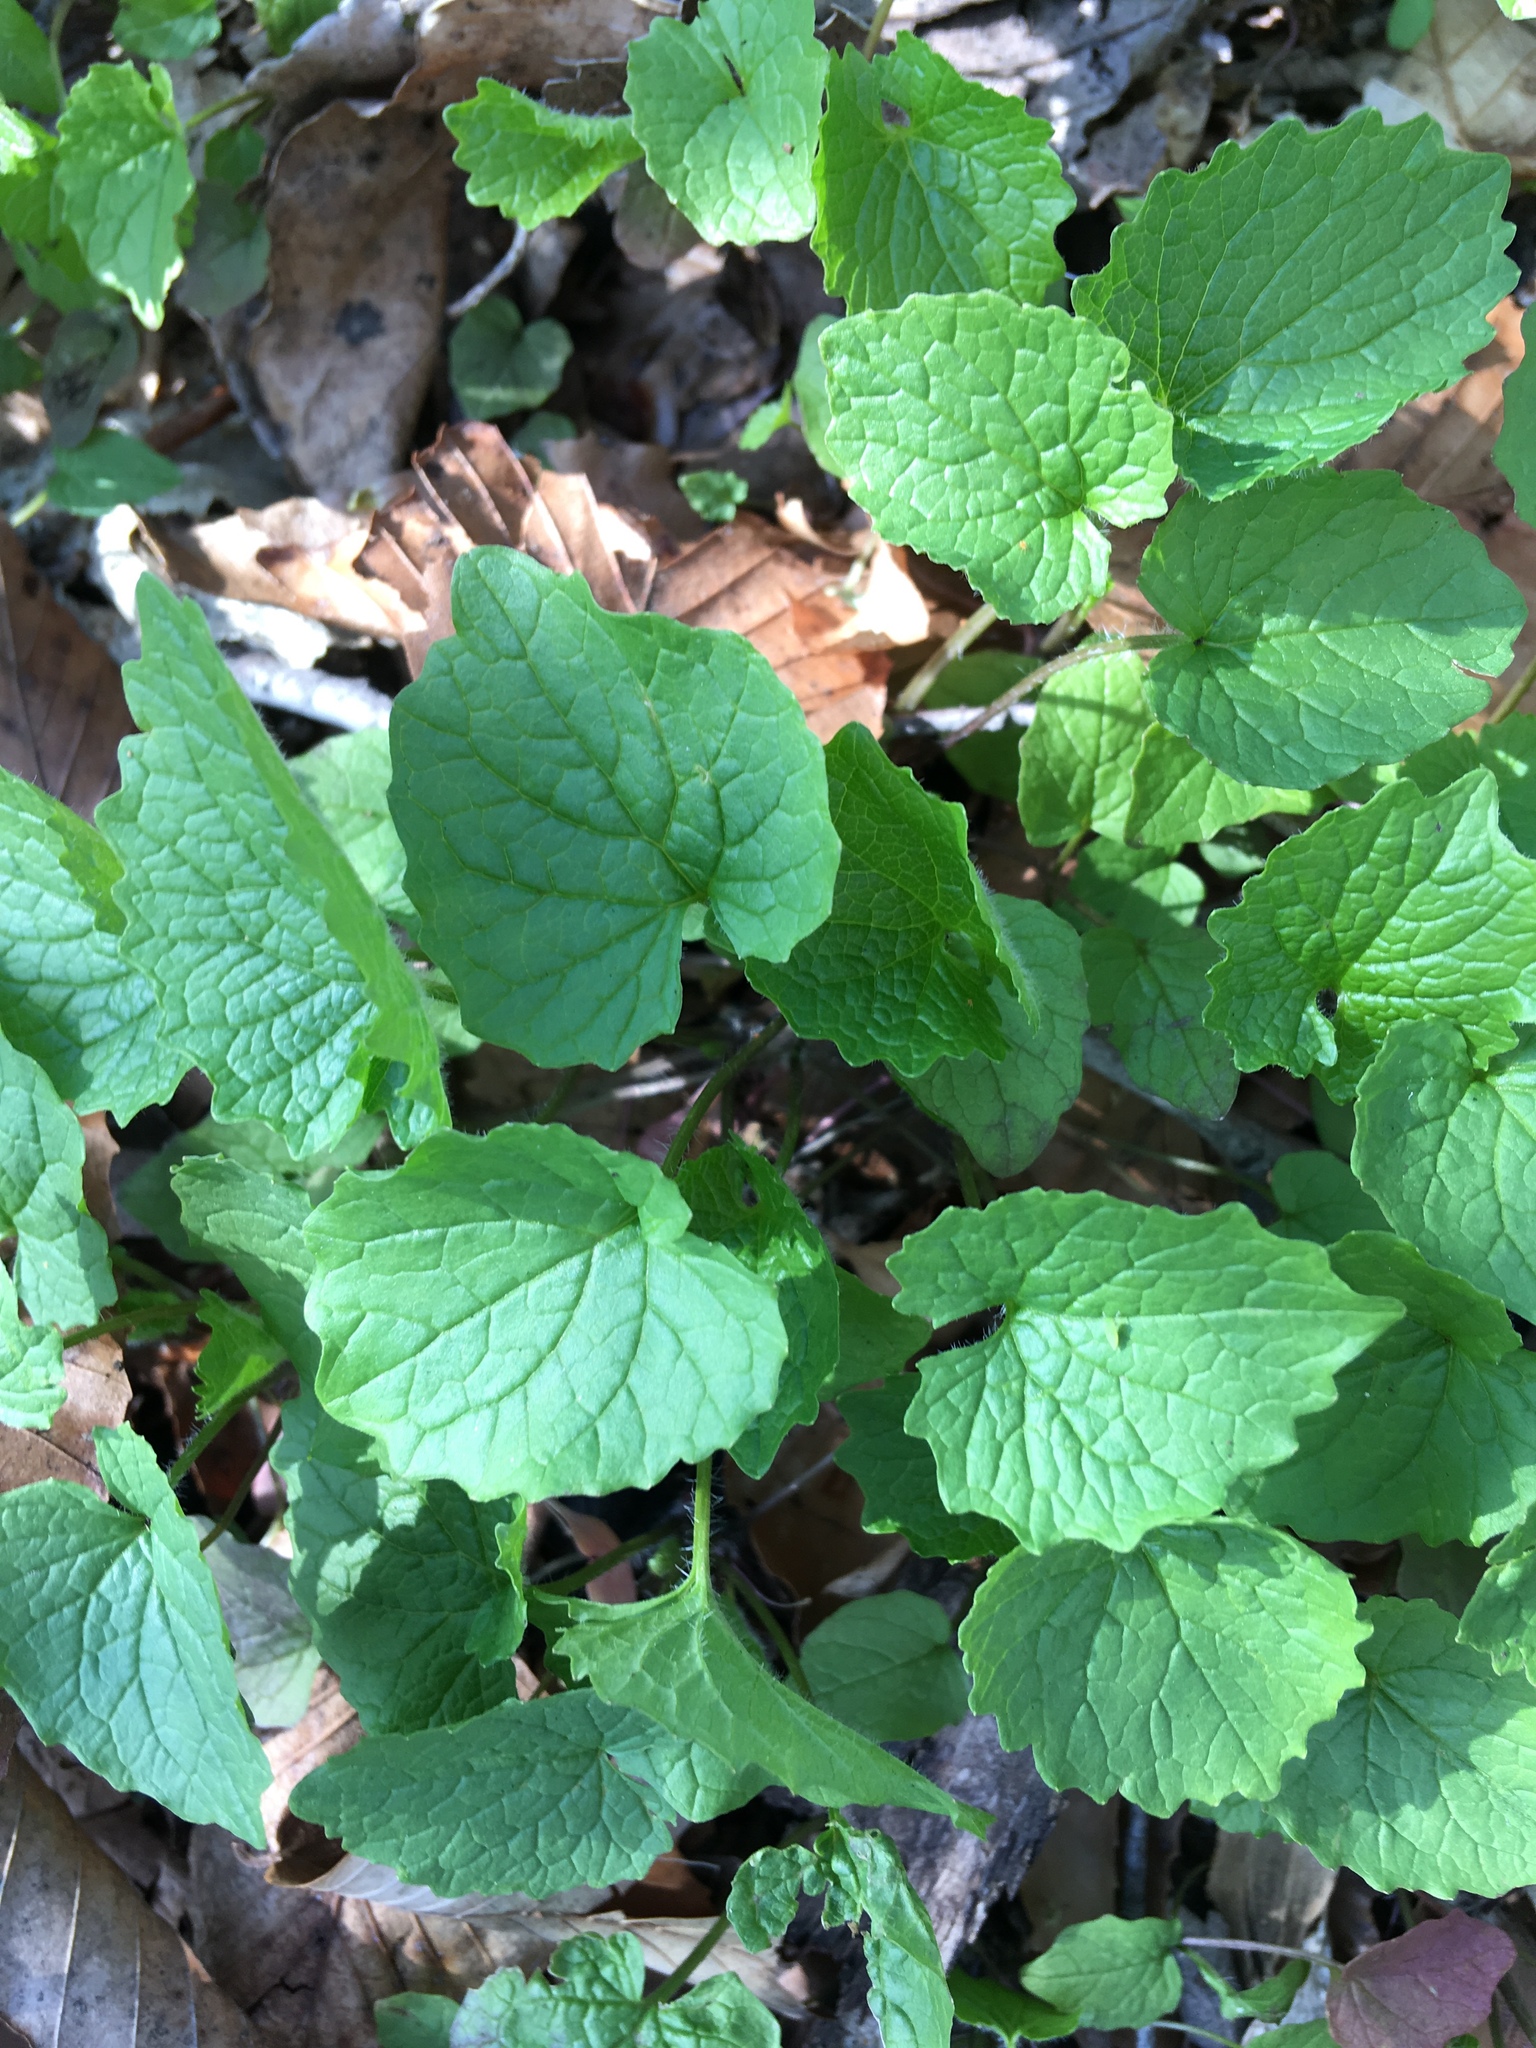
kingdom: Plantae
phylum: Tracheophyta
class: Magnoliopsida
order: Brassicales
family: Brassicaceae
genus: Alliaria
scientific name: Alliaria petiolata
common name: Garlic mustard
